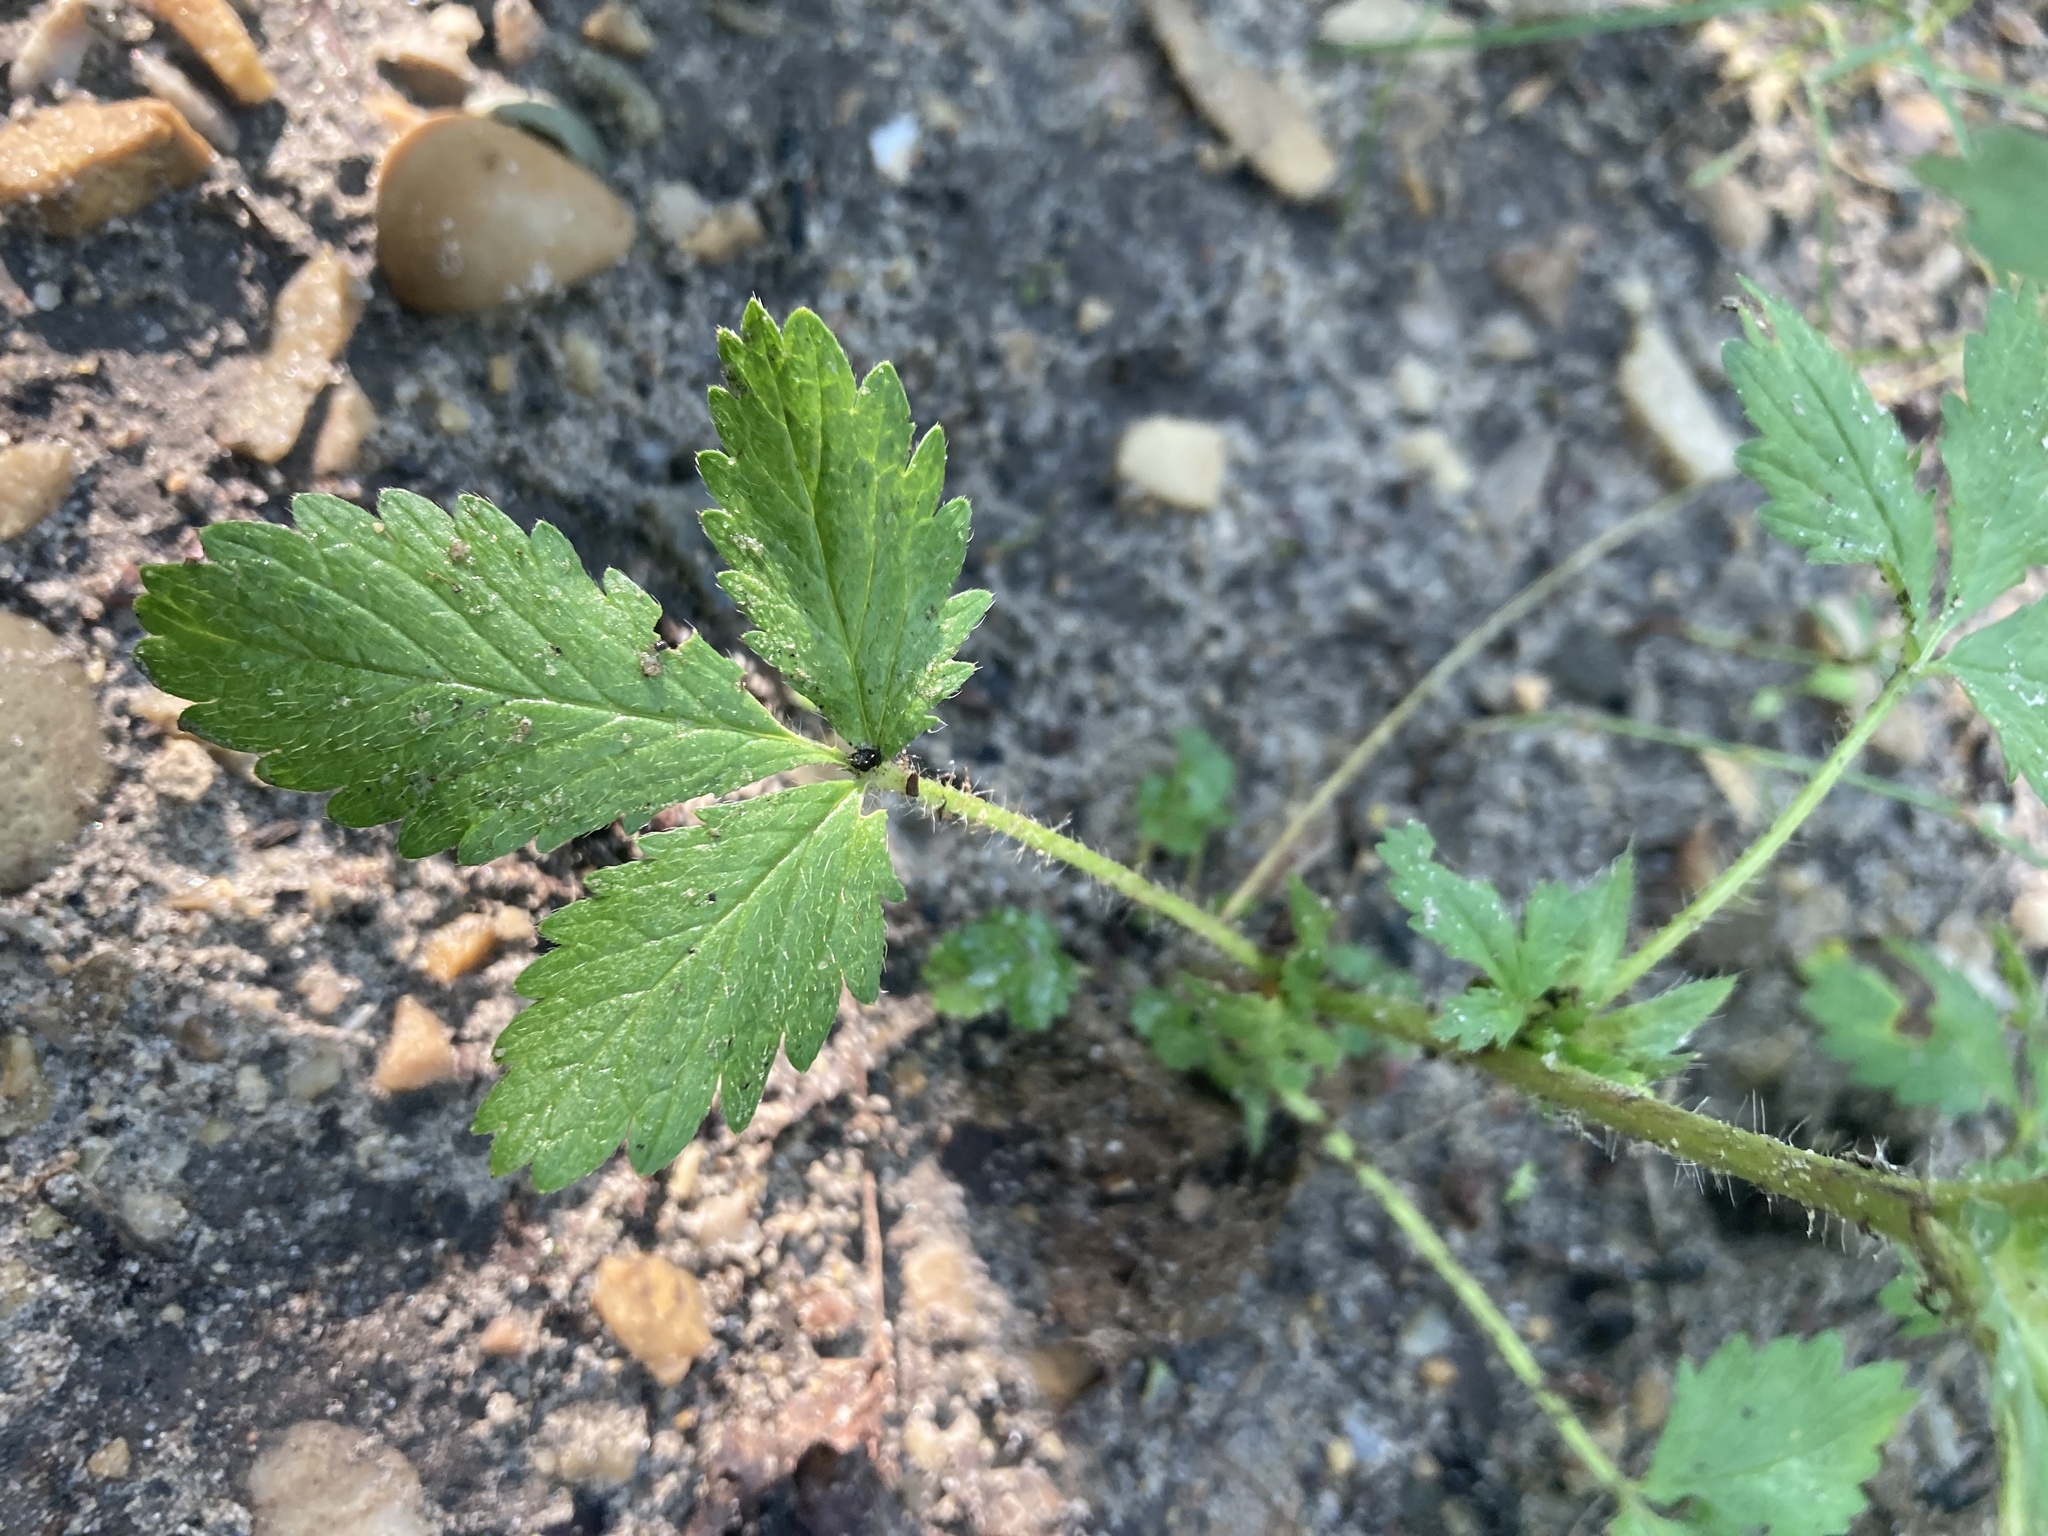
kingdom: Plantae
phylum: Tracheophyta
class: Magnoliopsida
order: Rosales
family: Rosaceae
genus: Potentilla
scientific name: Potentilla norvegica
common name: Ternate-leaved cinquefoil
